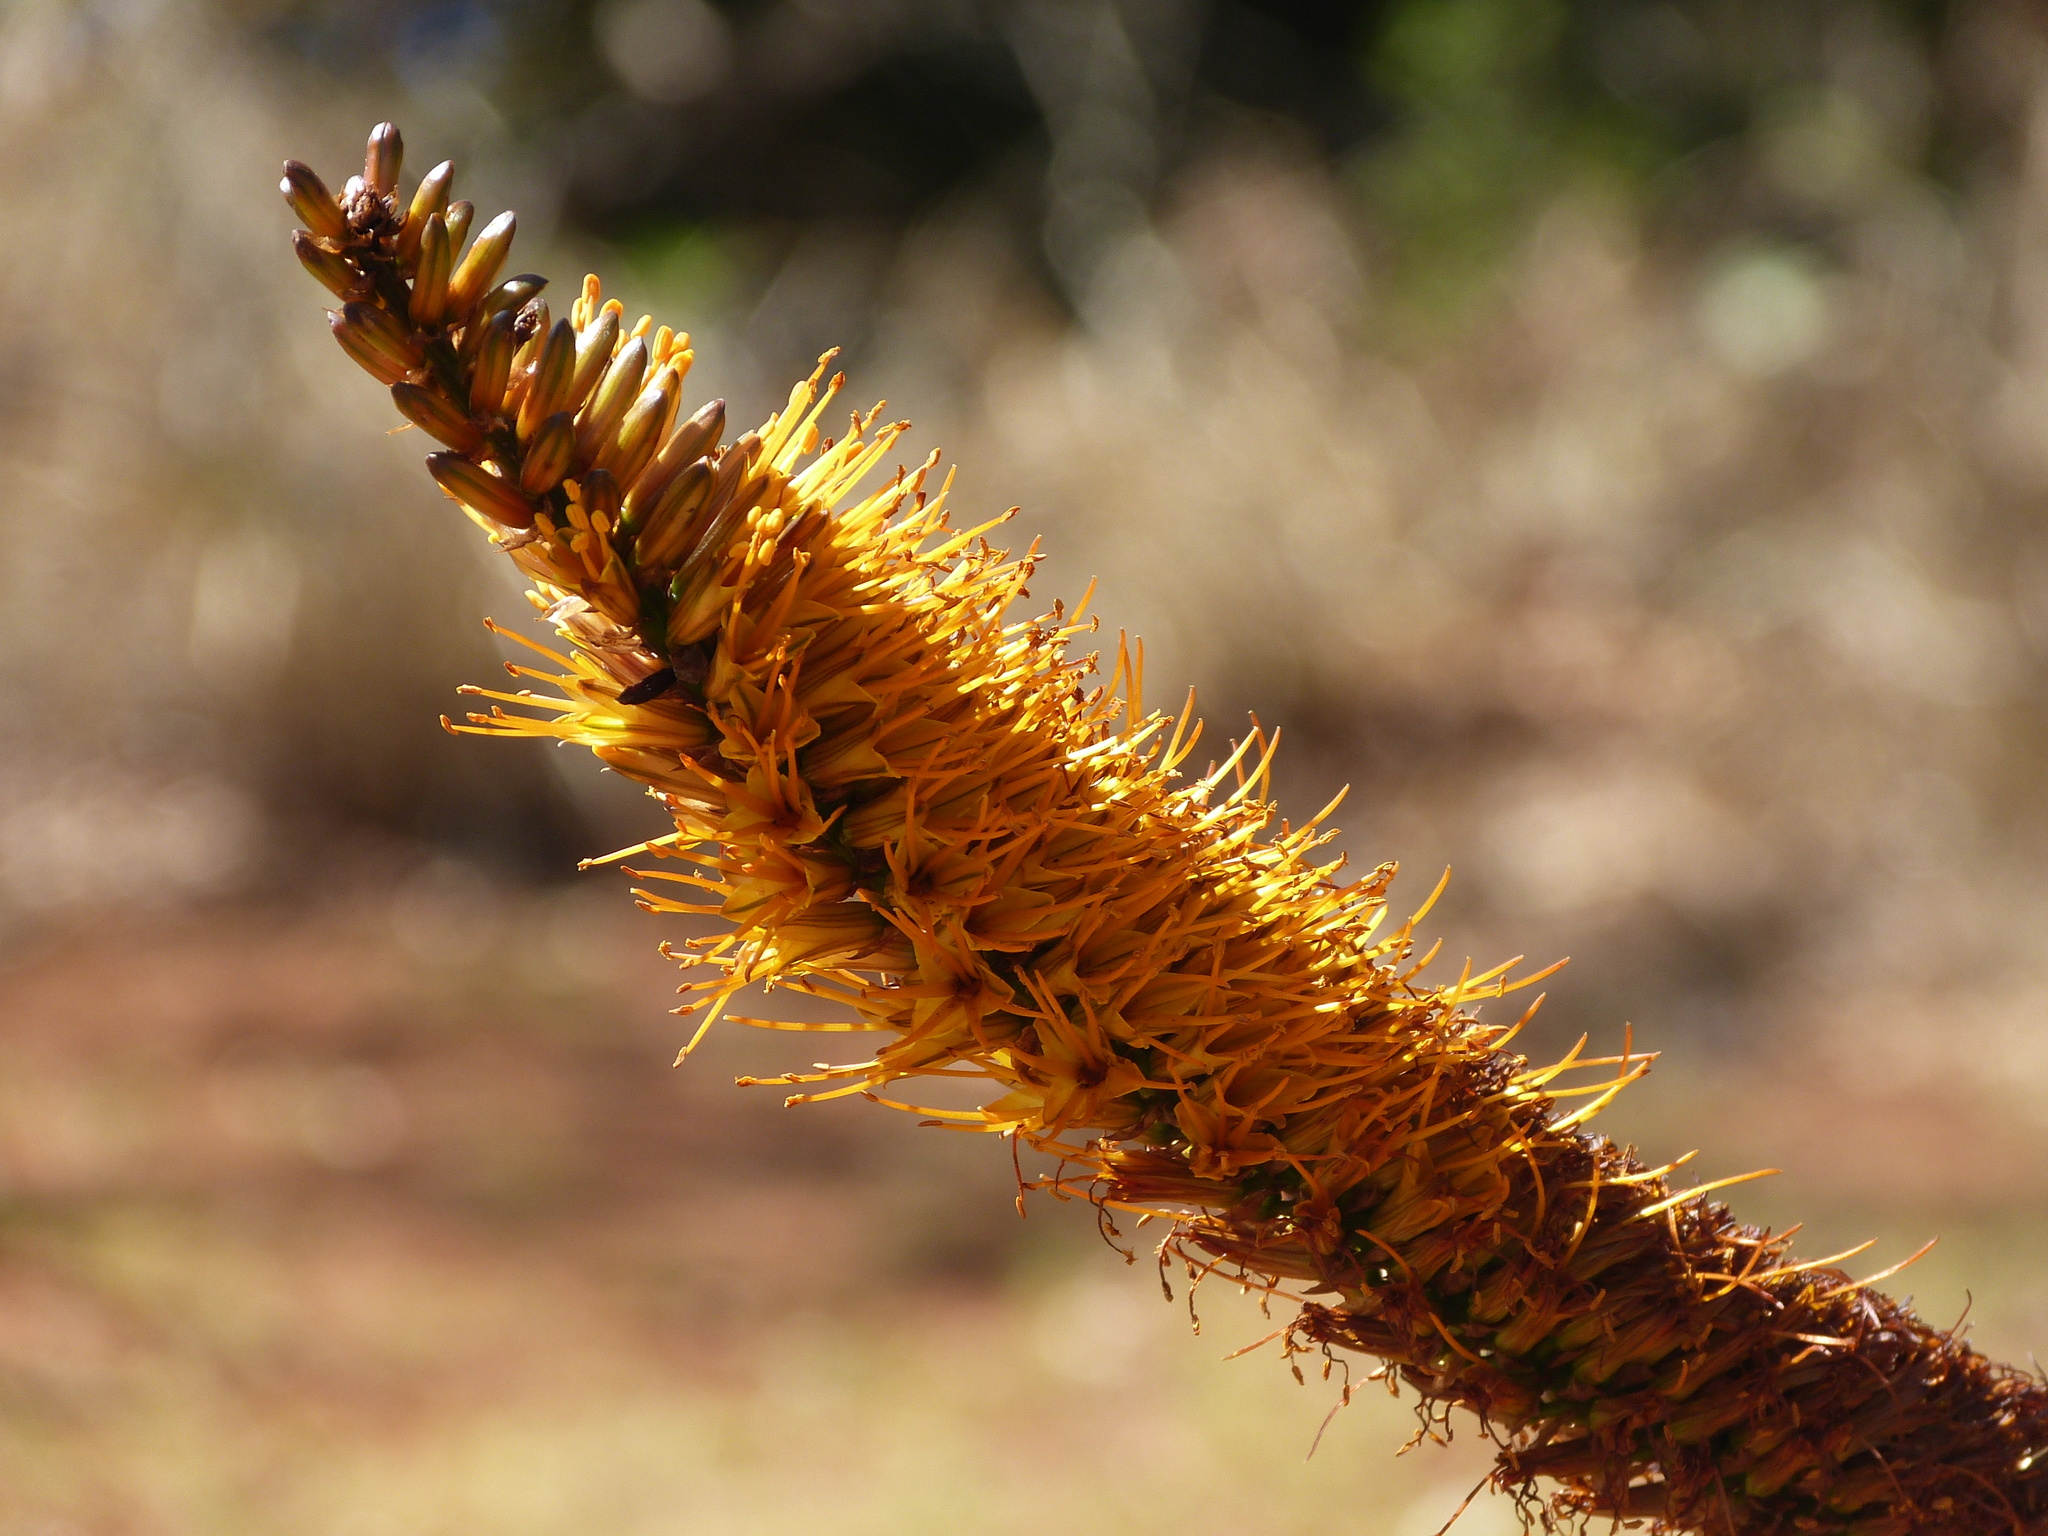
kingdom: Plantae
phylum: Tracheophyta
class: Liliopsida
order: Asparagales
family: Asphodelaceae
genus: Aloe
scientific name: Aloe marlothii
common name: Flat-flowered aloe
